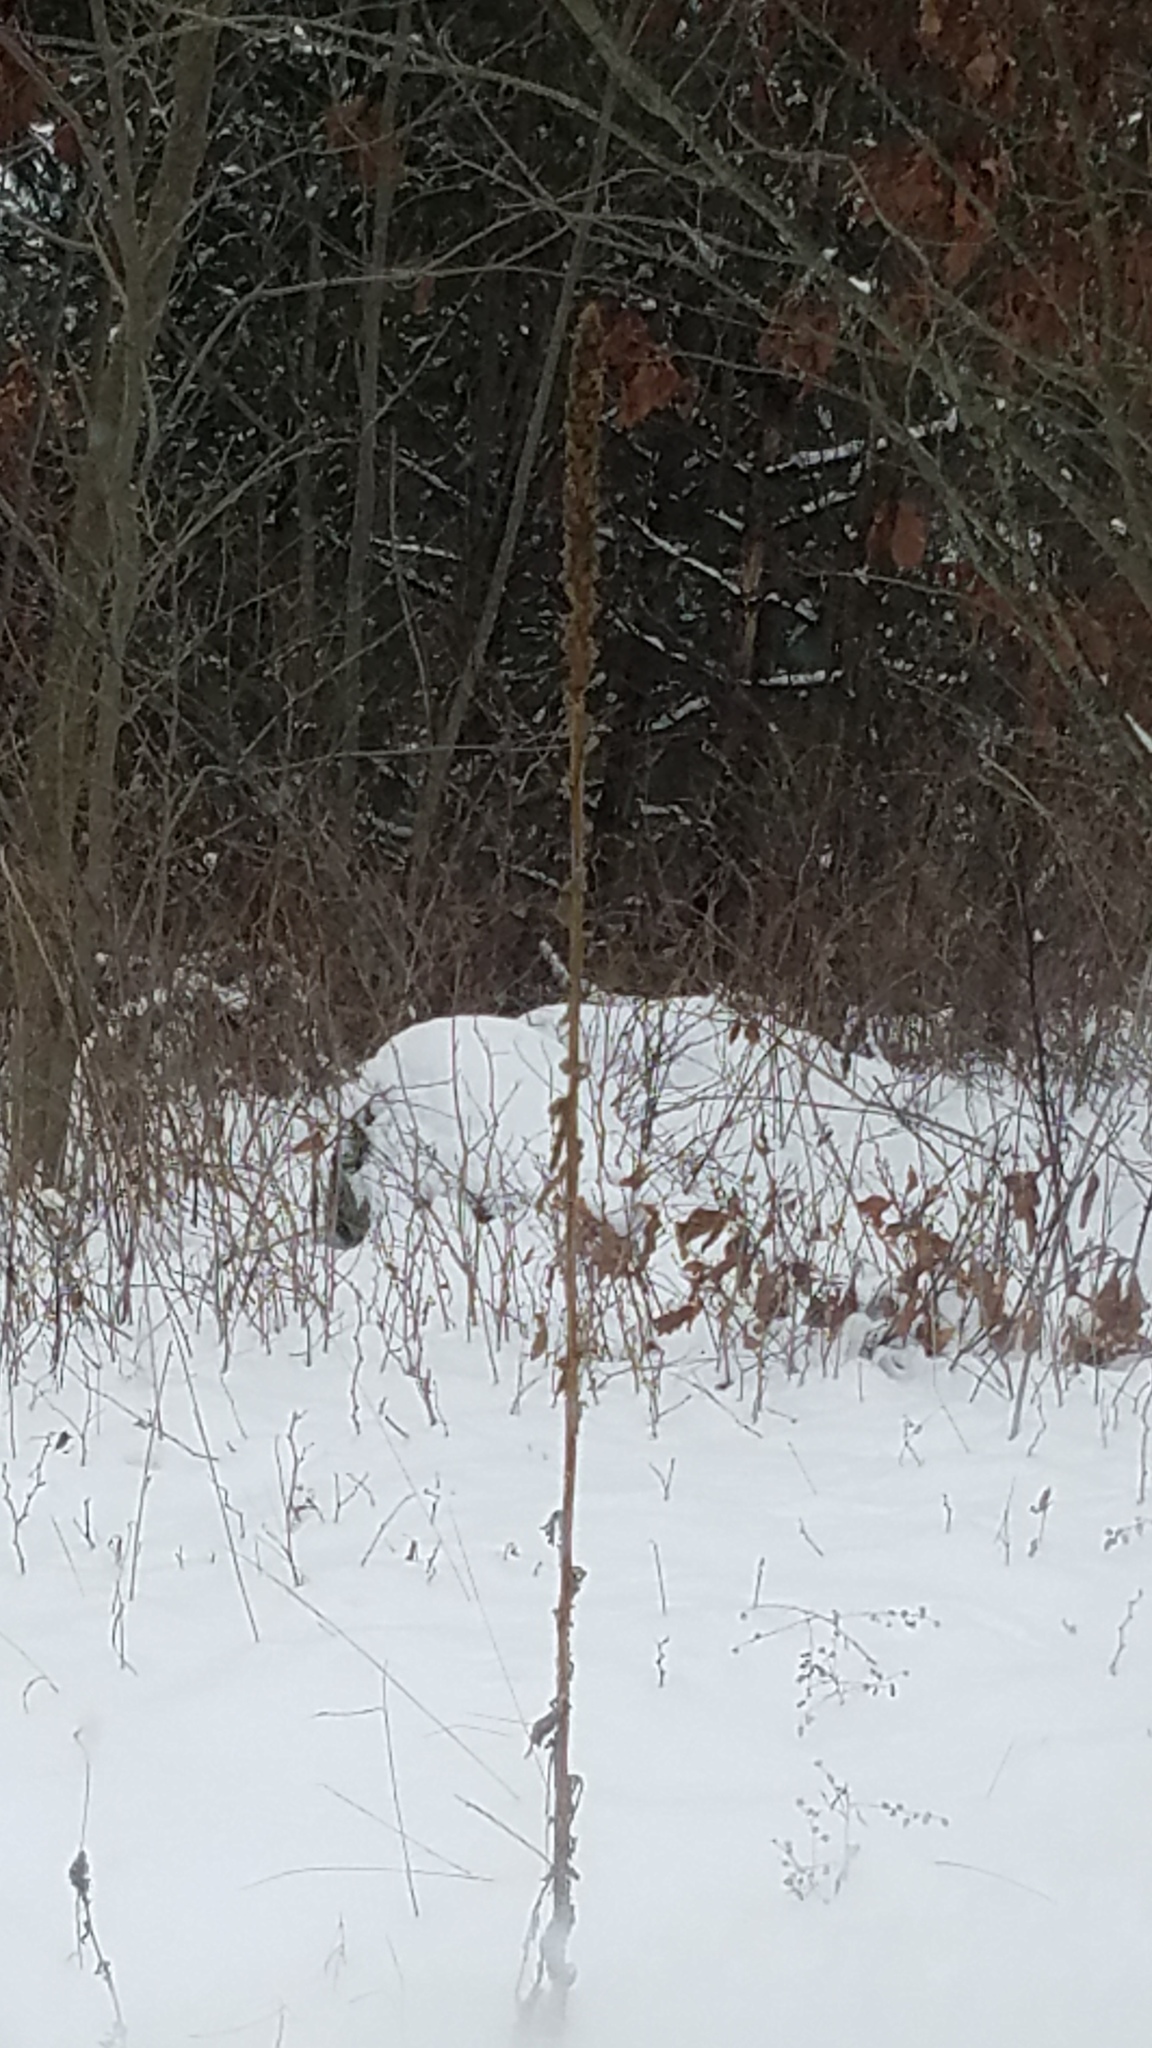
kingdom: Plantae
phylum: Tracheophyta
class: Magnoliopsida
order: Lamiales
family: Scrophulariaceae
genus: Verbascum
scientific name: Verbascum thapsus
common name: Common mullein
